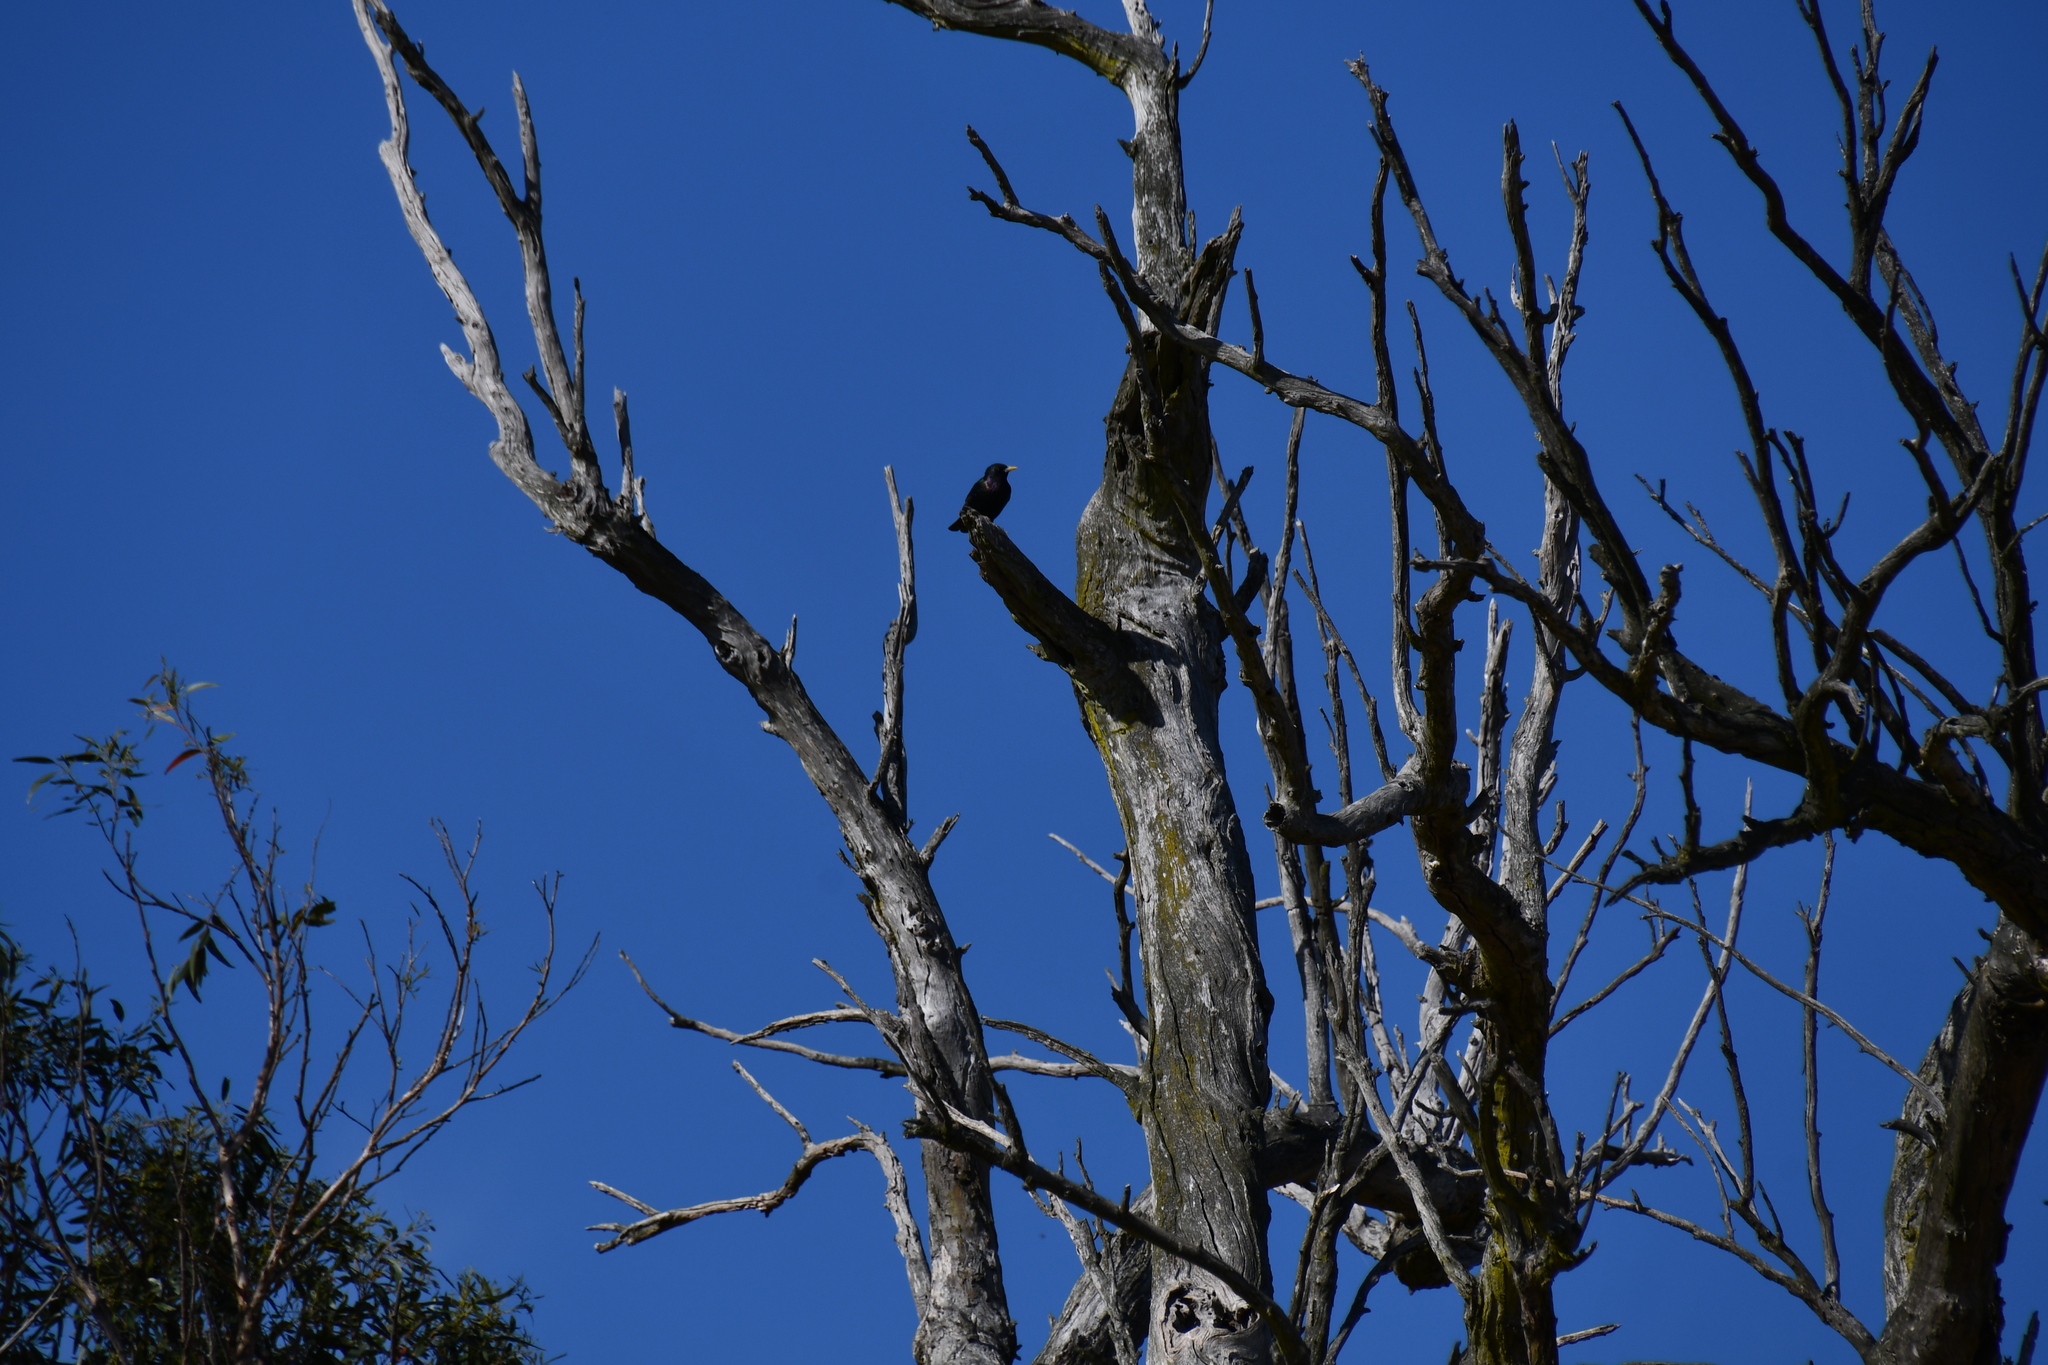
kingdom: Animalia
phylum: Chordata
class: Aves
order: Passeriformes
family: Sturnidae
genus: Sturnus
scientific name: Sturnus vulgaris
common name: Common starling
